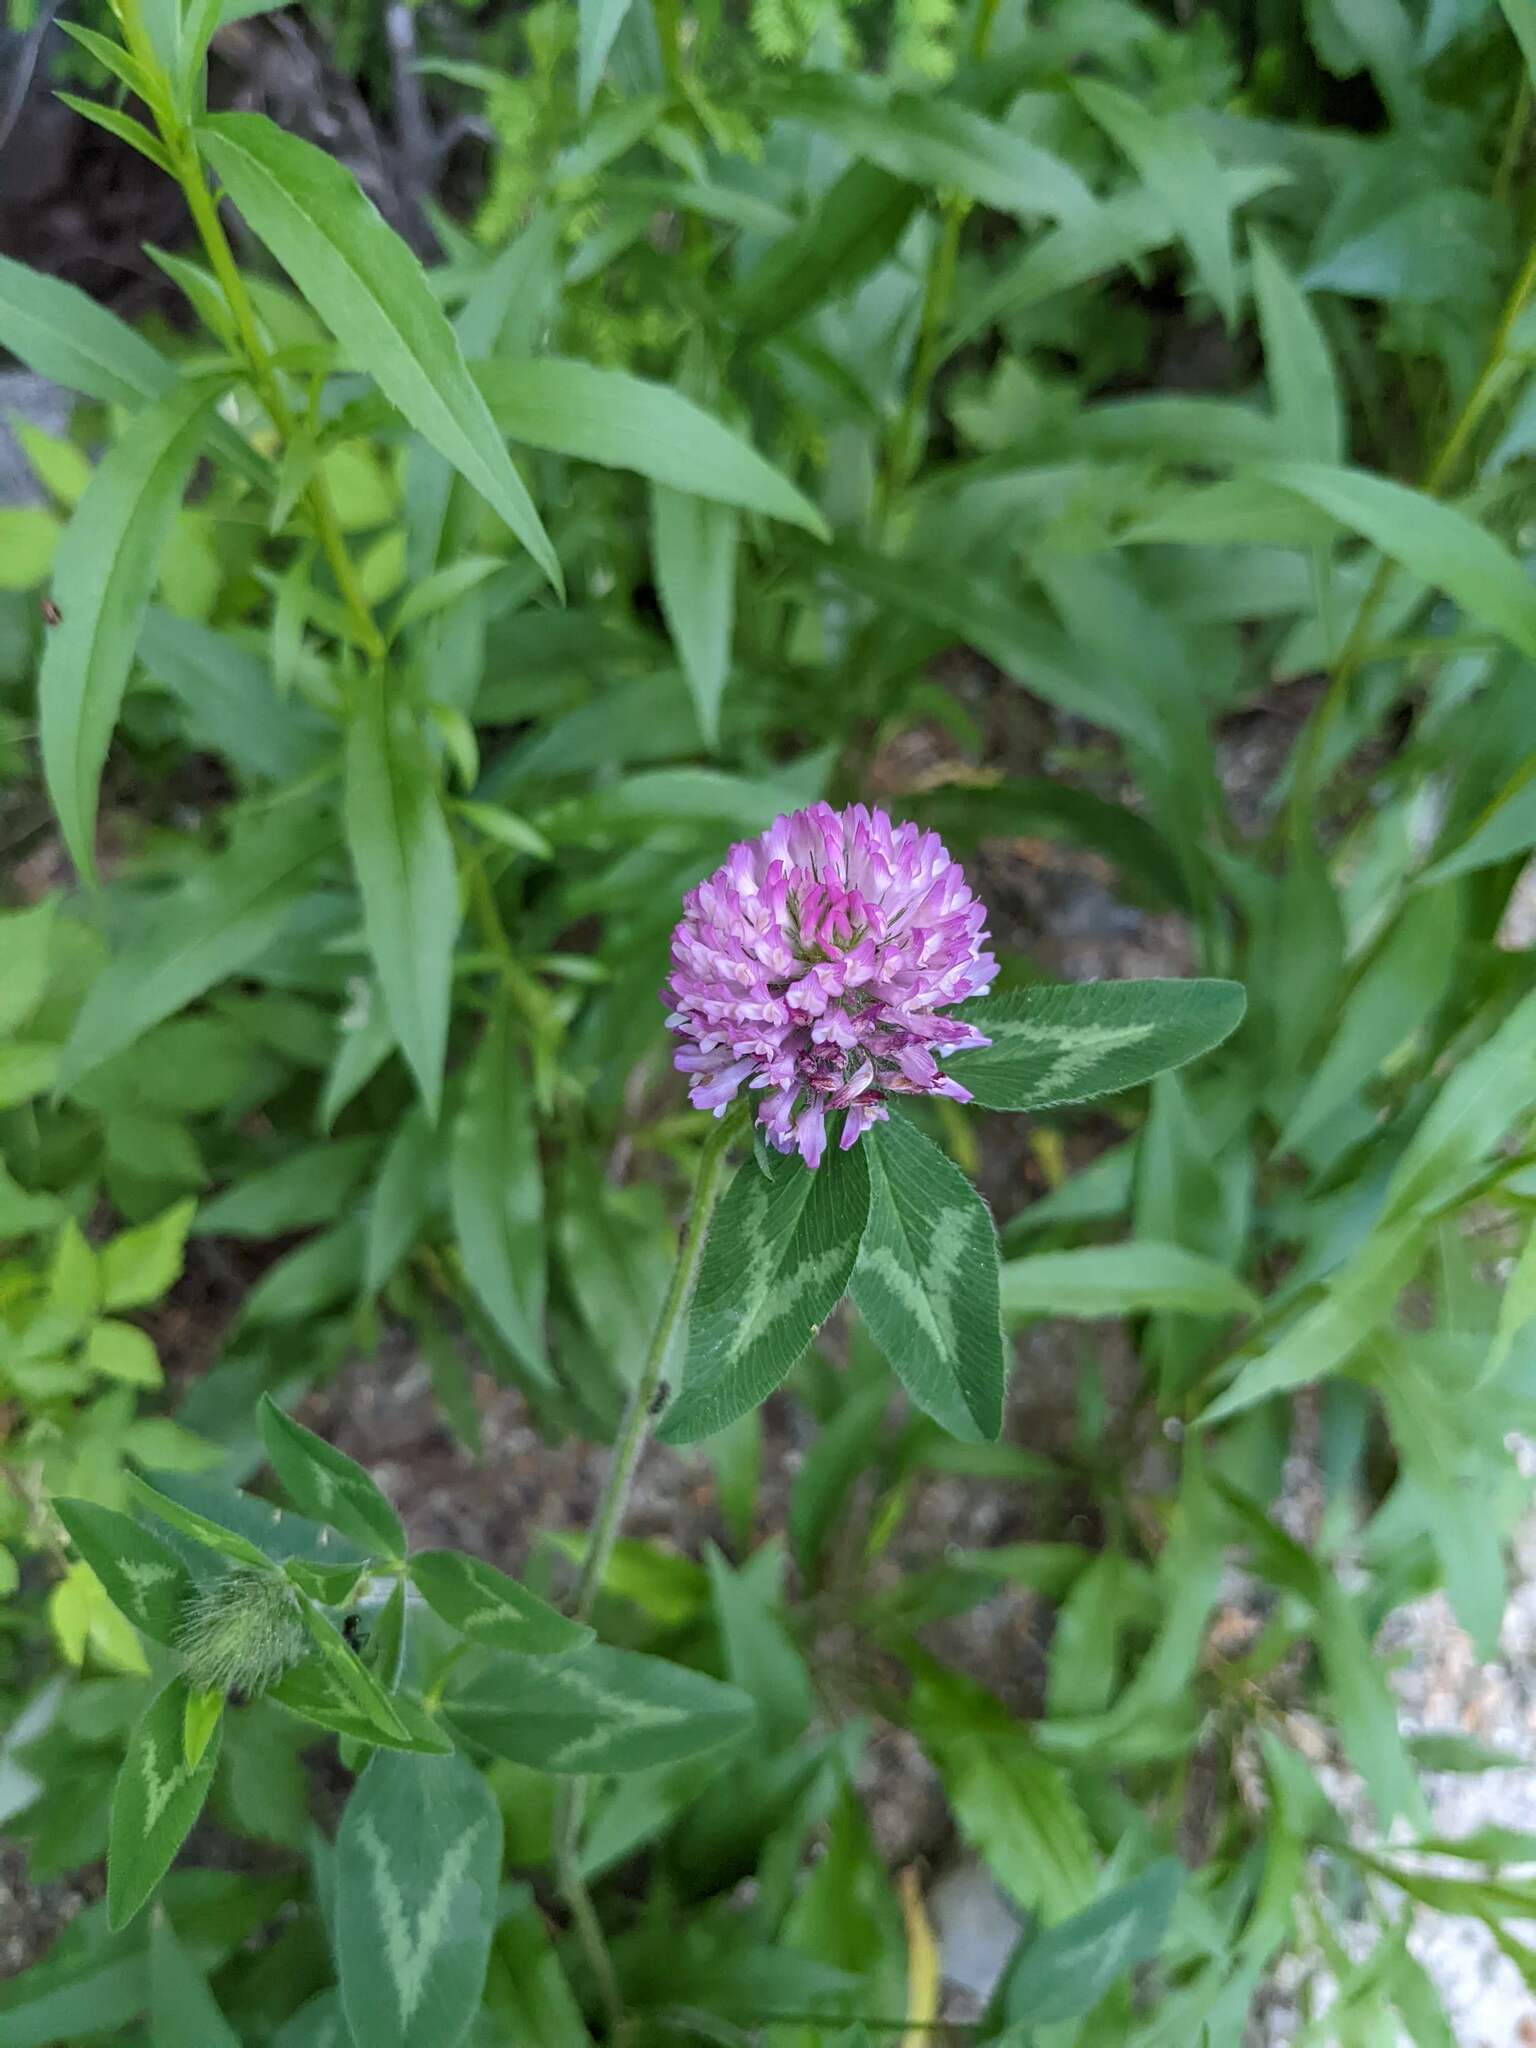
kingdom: Plantae
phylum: Tracheophyta
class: Magnoliopsida
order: Fabales
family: Fabaceae
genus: Trifolium
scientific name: Trifolium pratense
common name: Red clover
